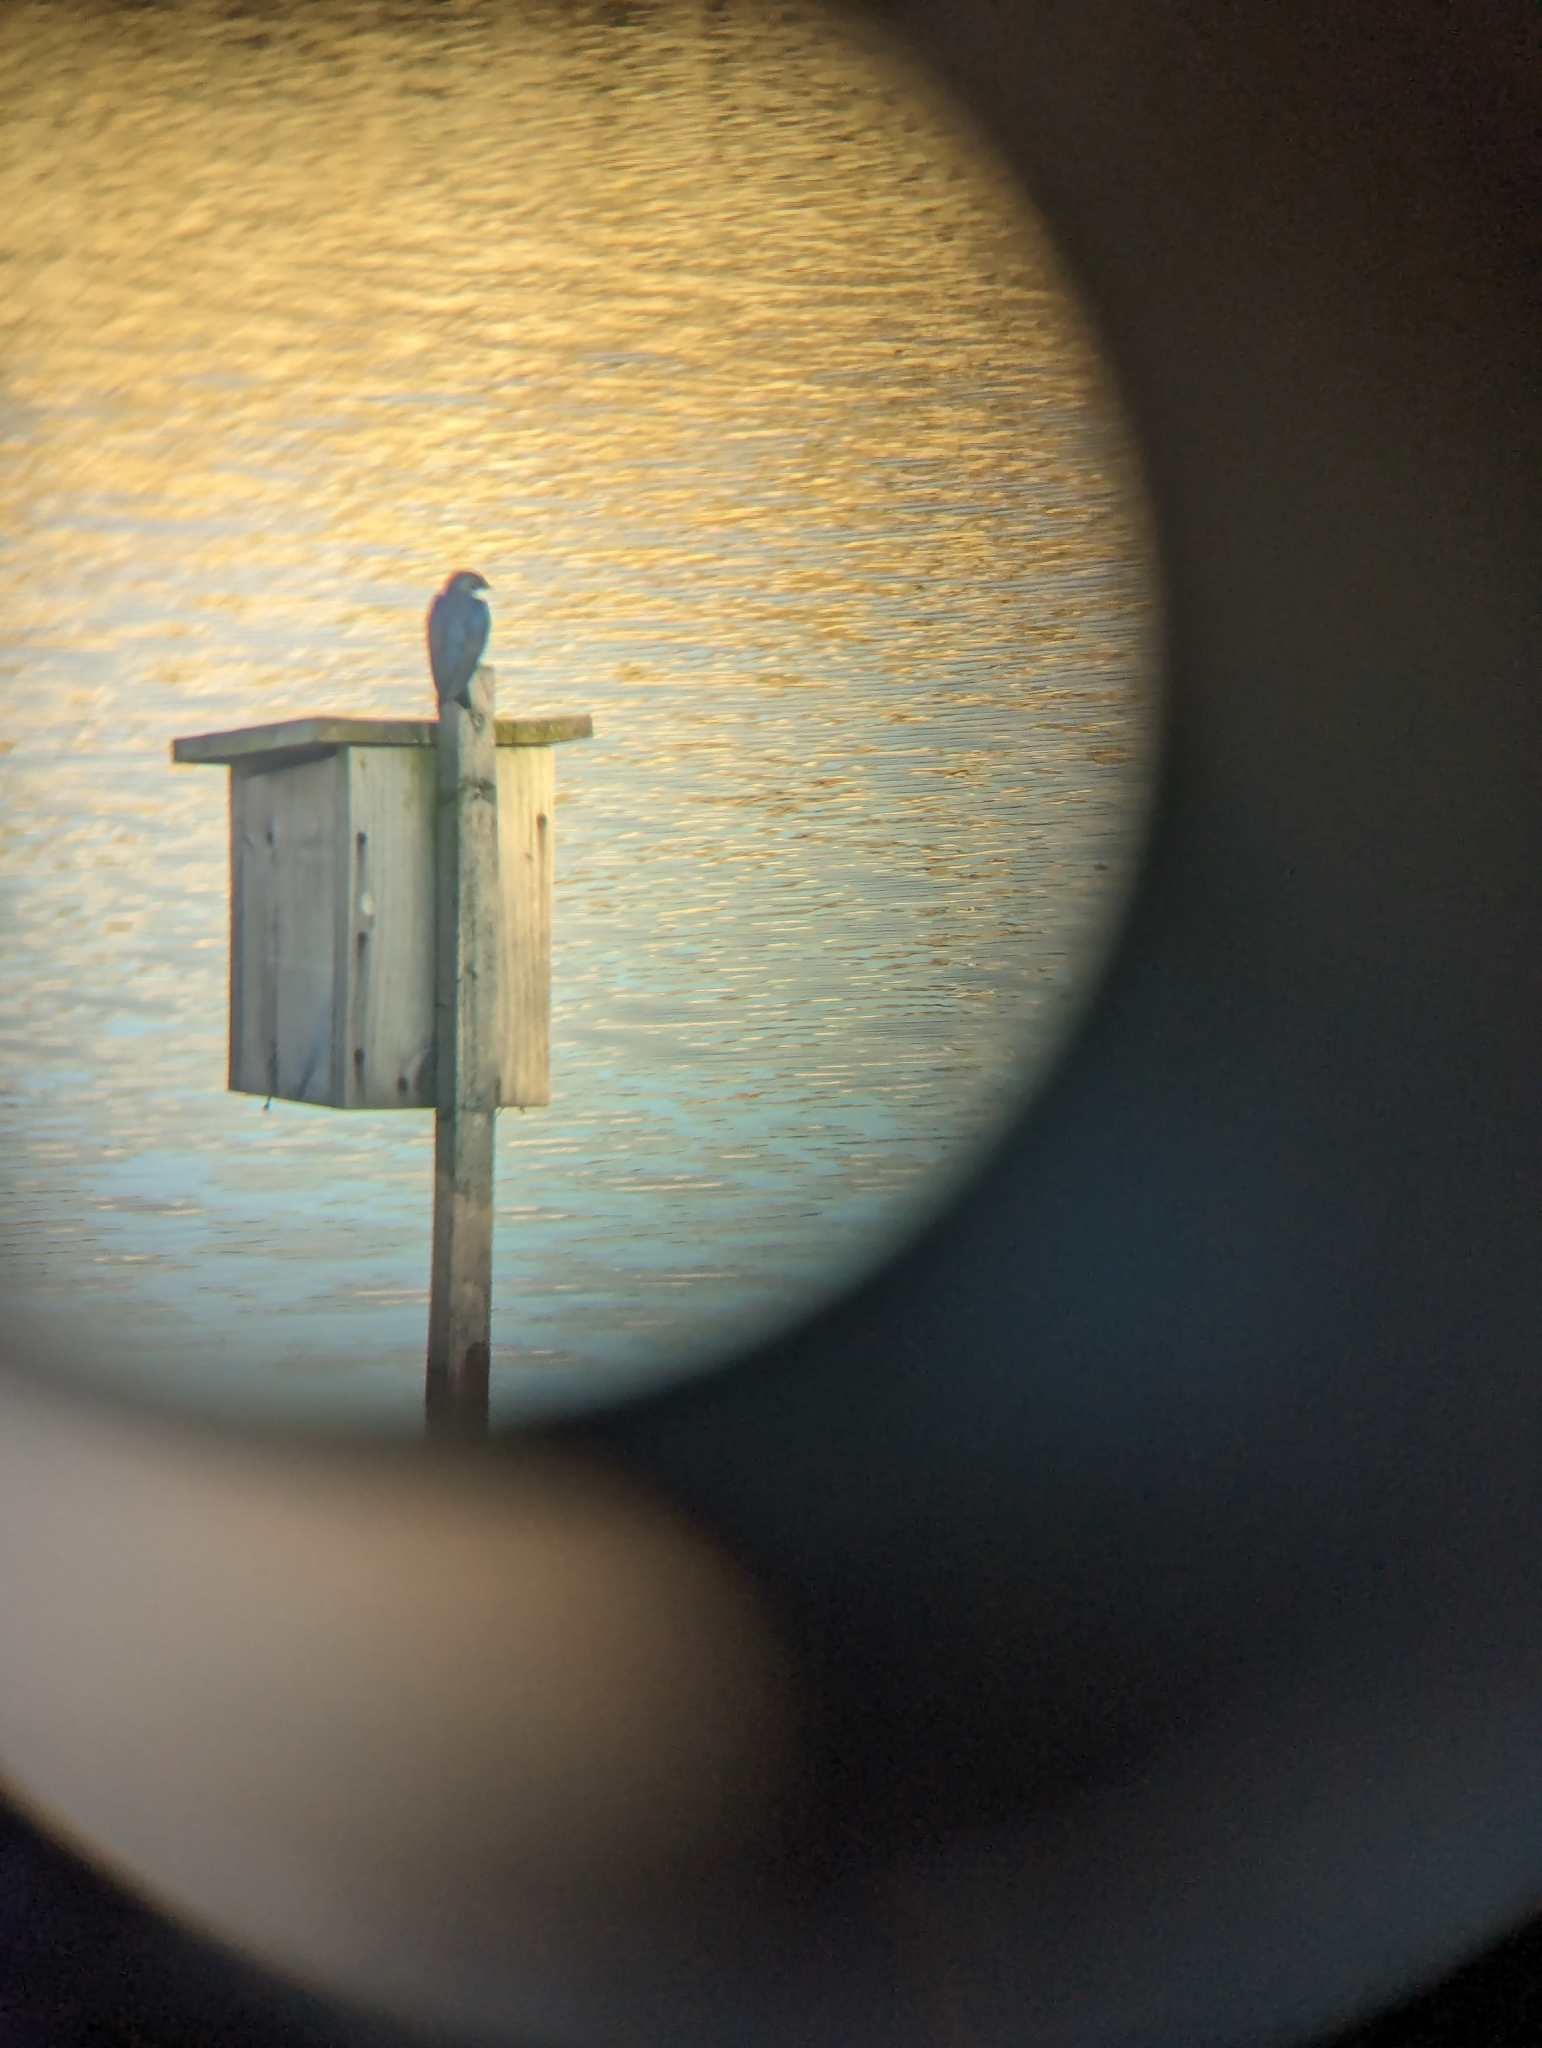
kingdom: Animalia
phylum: Chordata
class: Aves
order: Passeriformes
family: Hirundinidae
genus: Tachycineta
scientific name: Tachycineta bicolor
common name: Tree swallow
